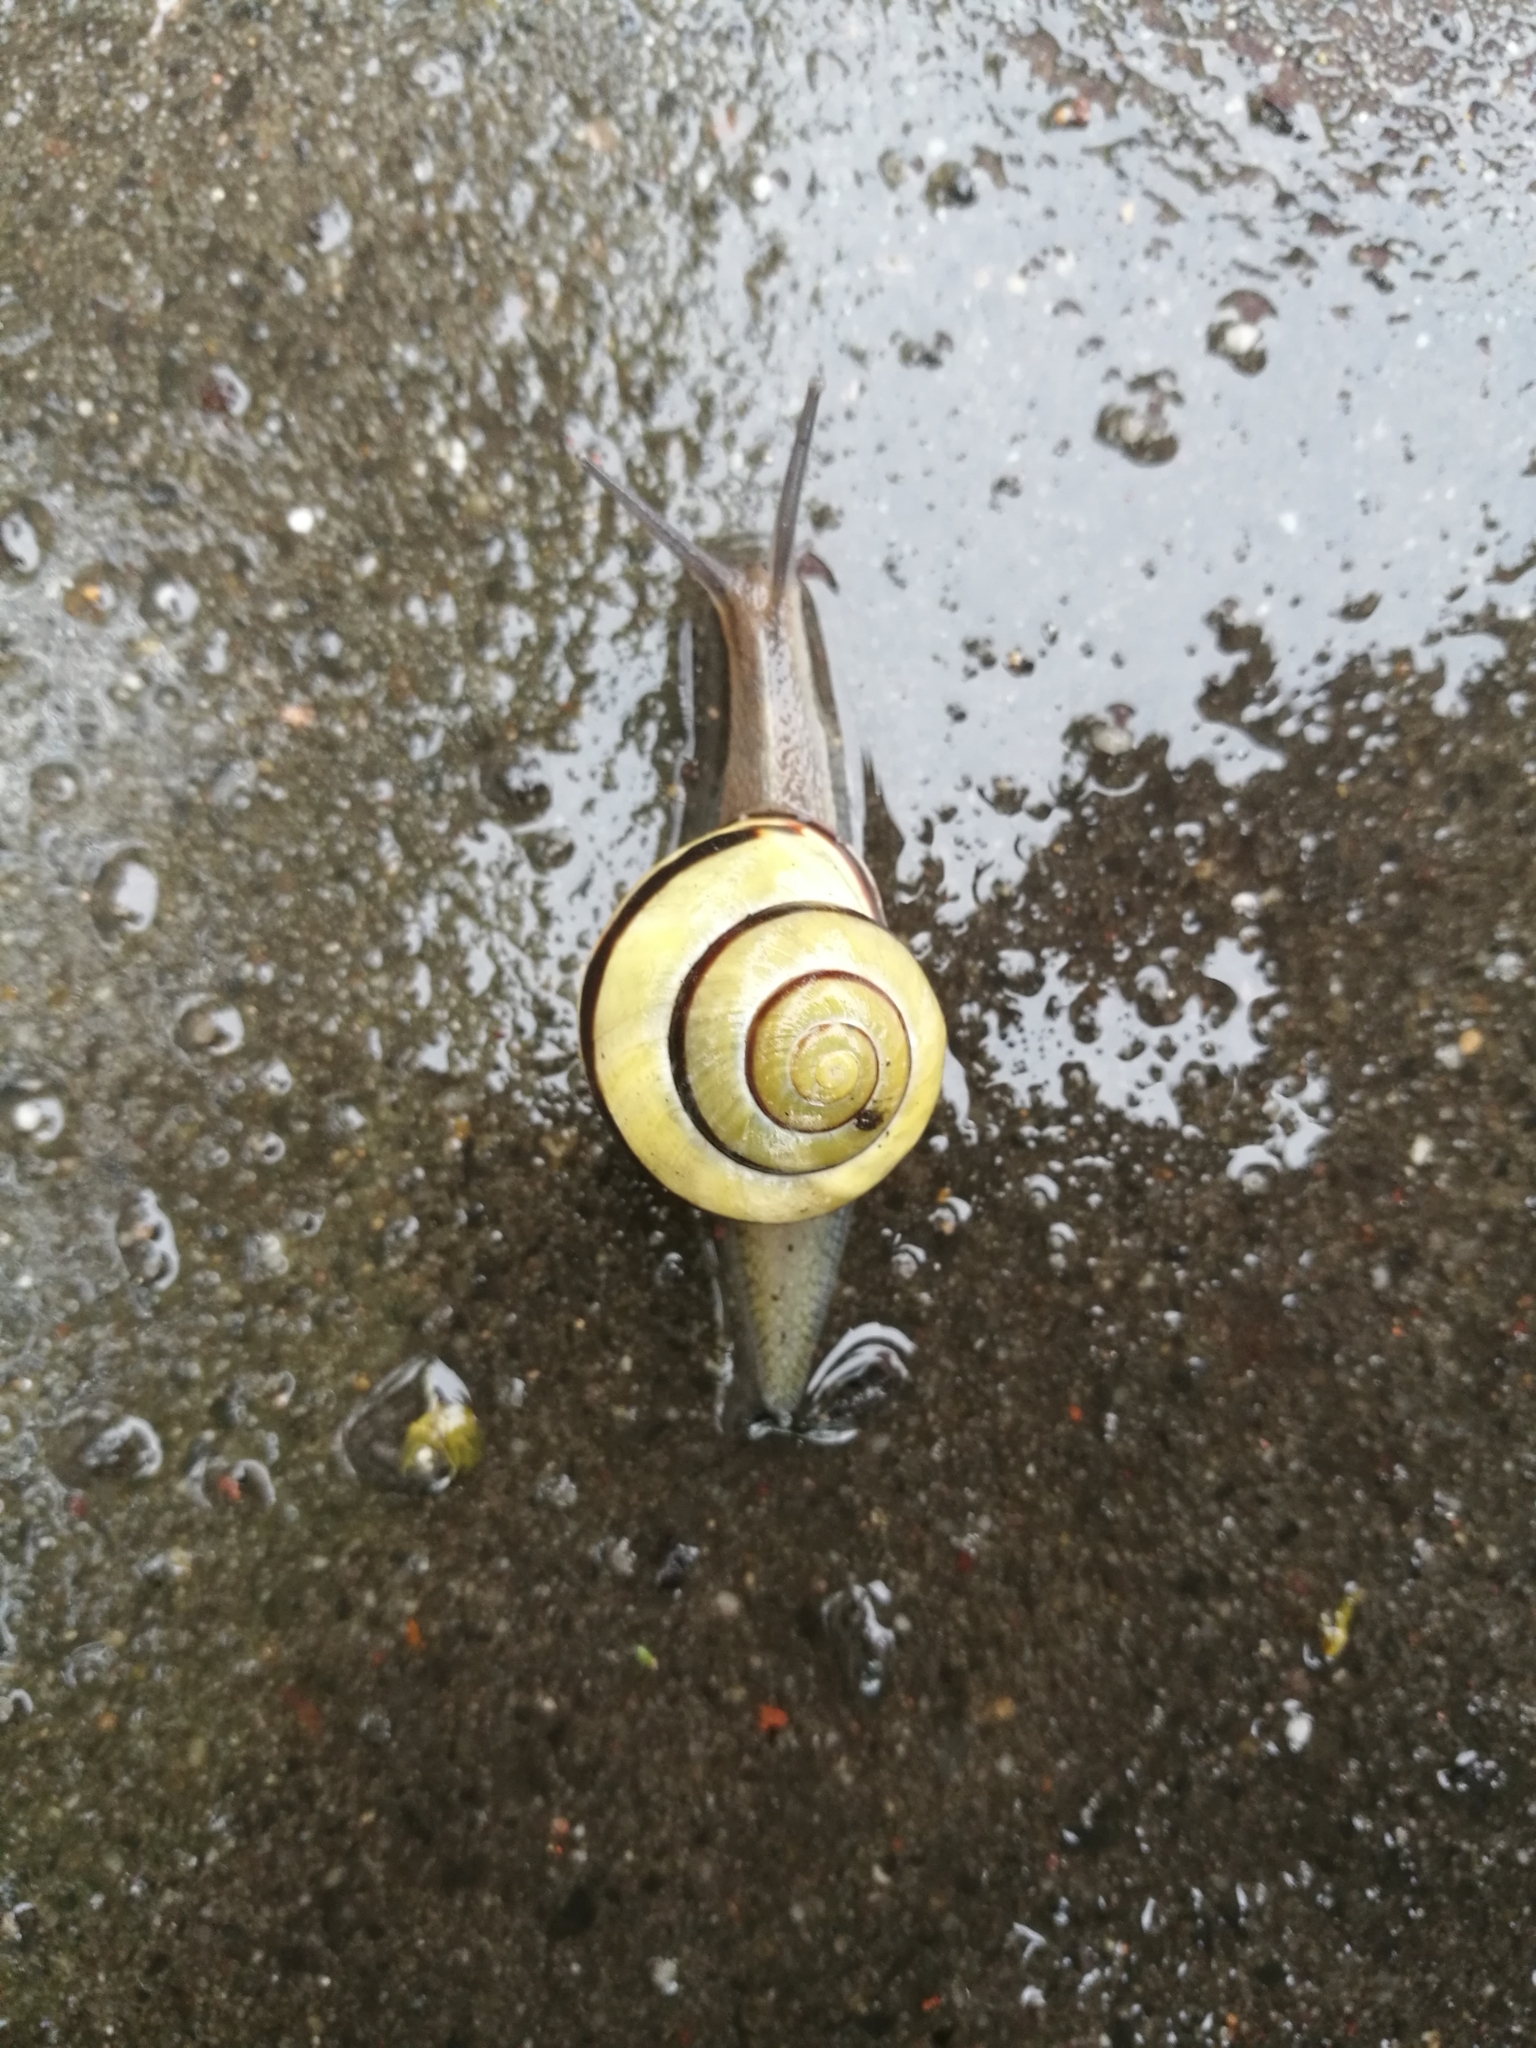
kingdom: Animalia
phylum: Mollusca
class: Gastropoda
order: Stylommatophora
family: Helicidae
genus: Cepaea
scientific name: Cepaea nemoralis
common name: Grovesnail
